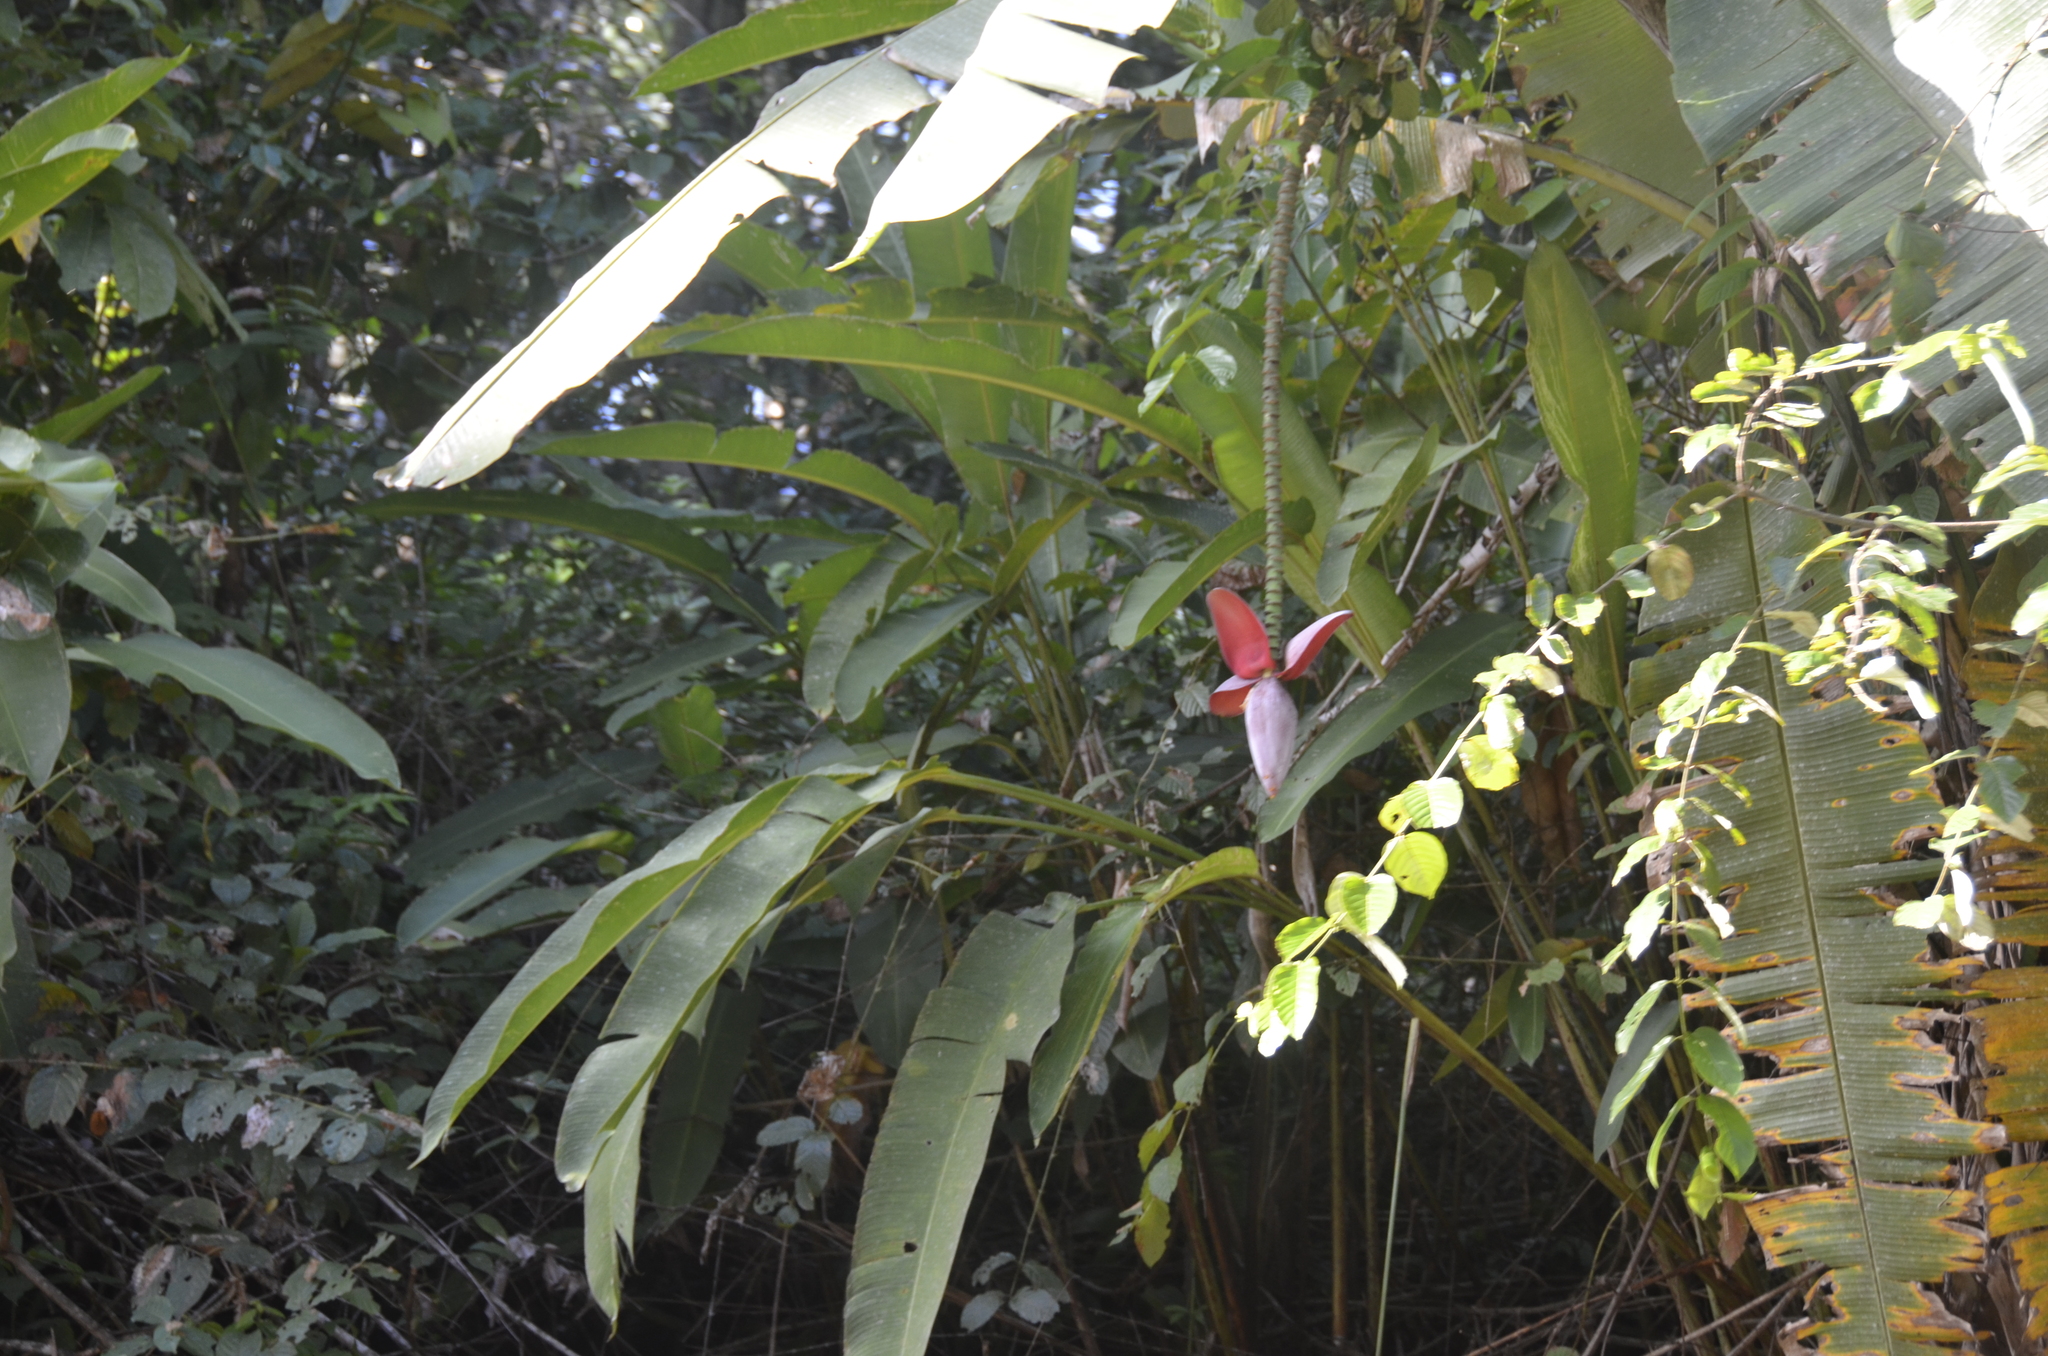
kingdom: Plantae
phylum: Tracheophyta
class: Liliopsida
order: Zingiberales
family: Musaceae
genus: Musa
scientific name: Musa balbisiana
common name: Plantain
